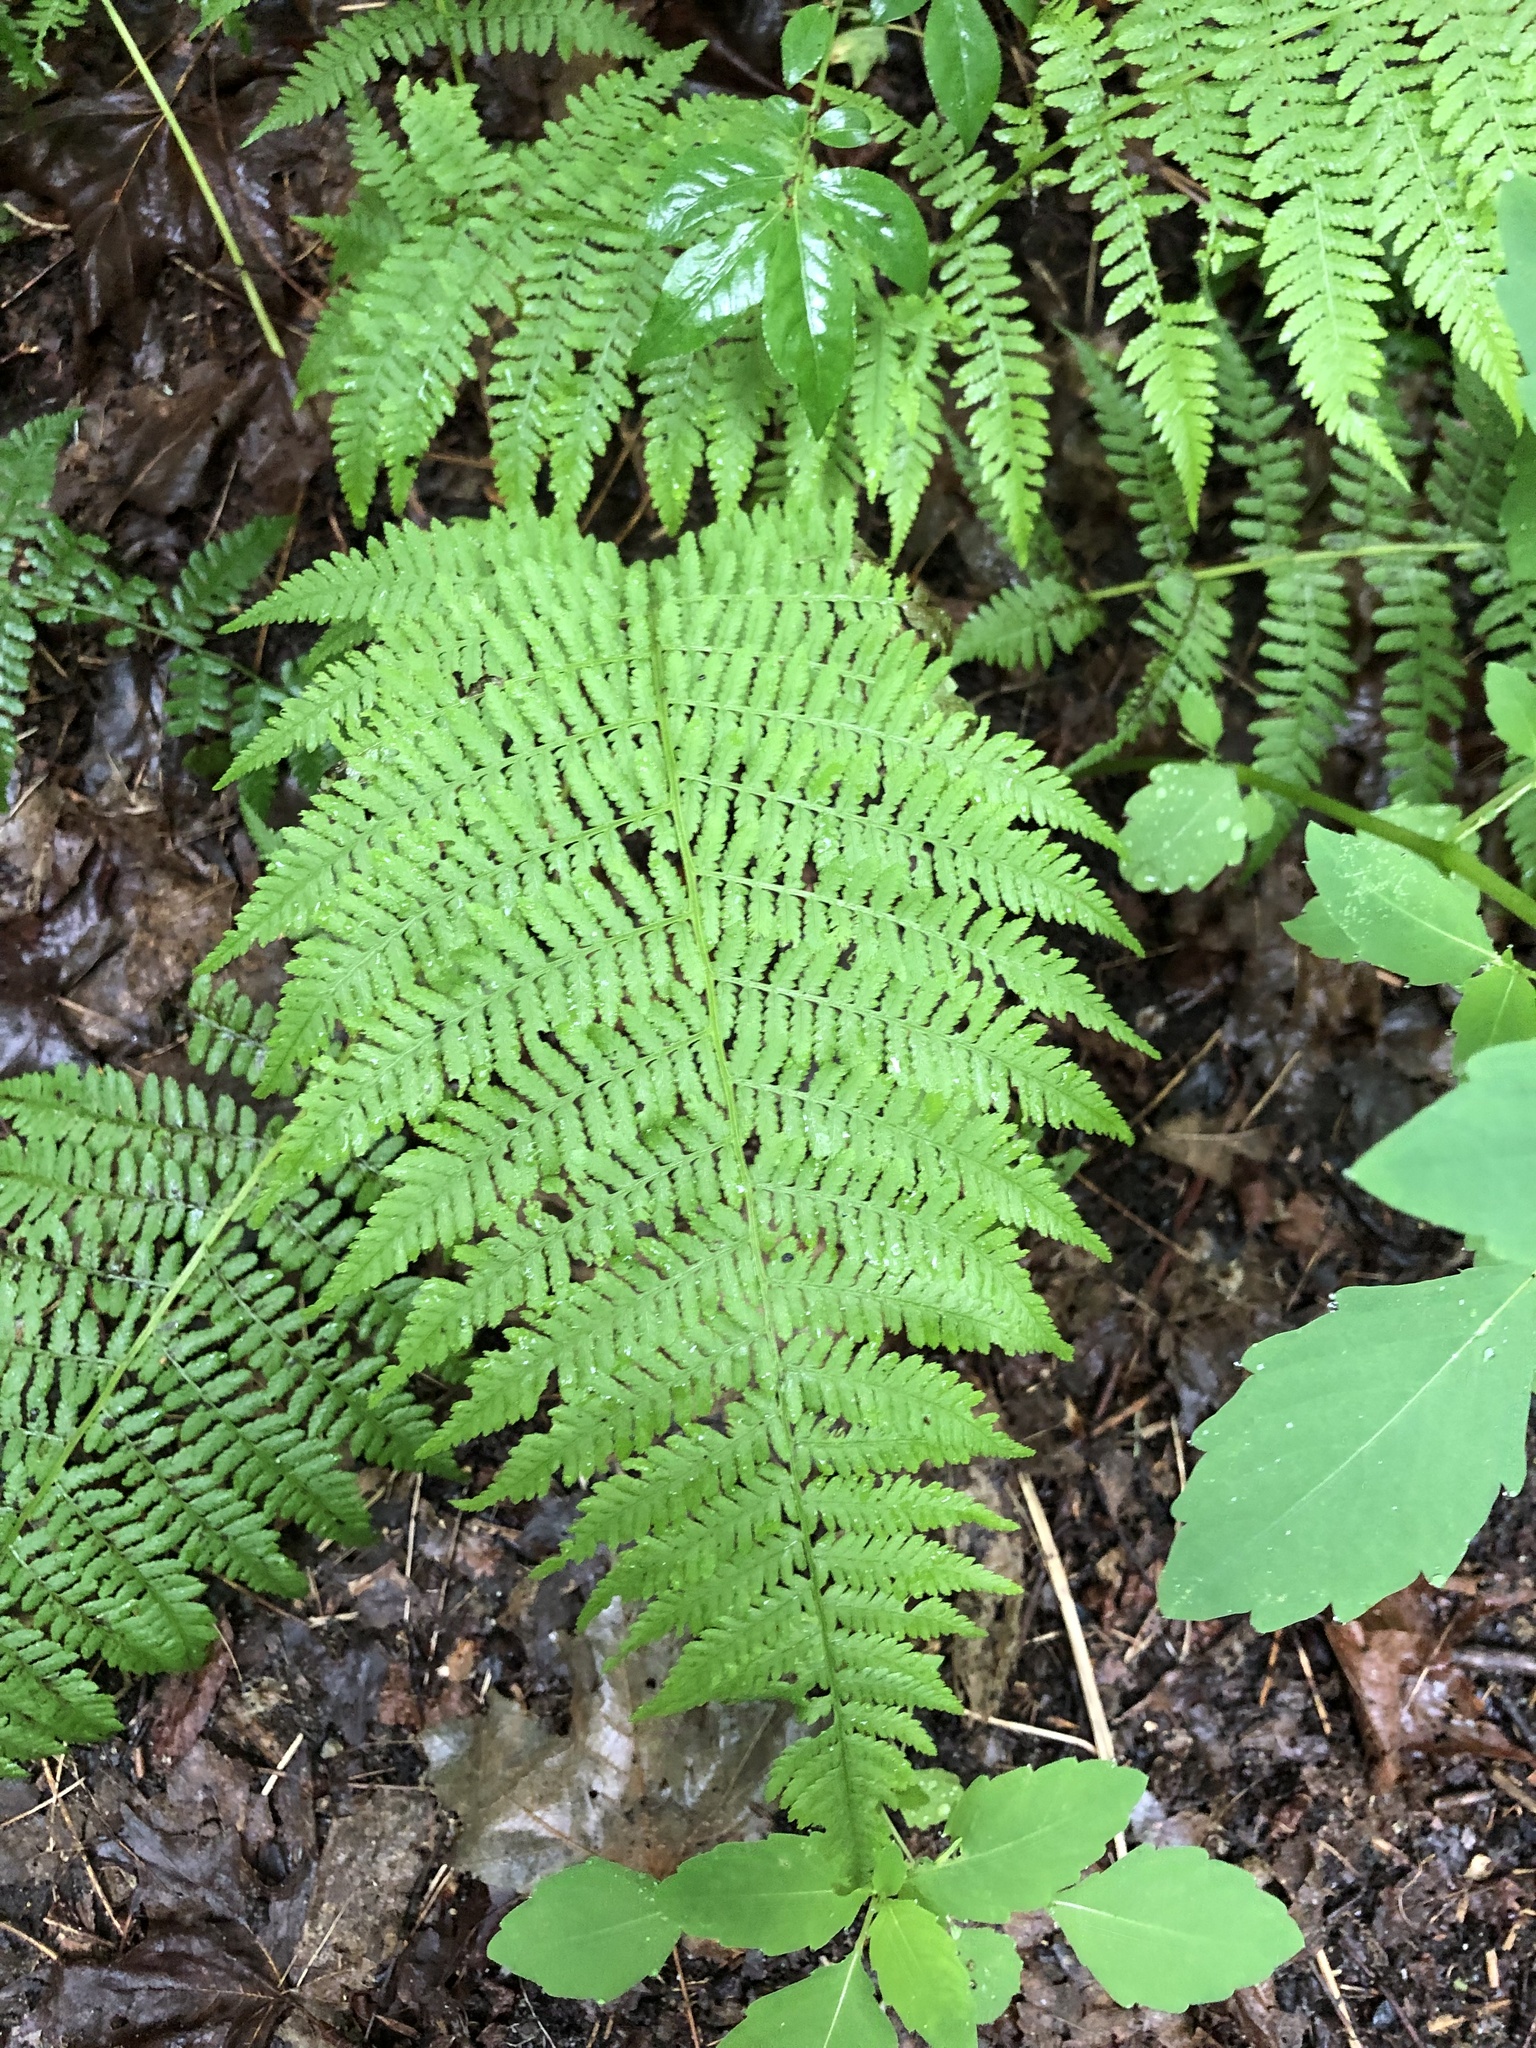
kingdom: Plantae
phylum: Tracheophyta
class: Polypodiopsida
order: Polypodiales
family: Athyriaceae
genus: Athyrium
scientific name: Athyrium angustum
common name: Northern lady fern
